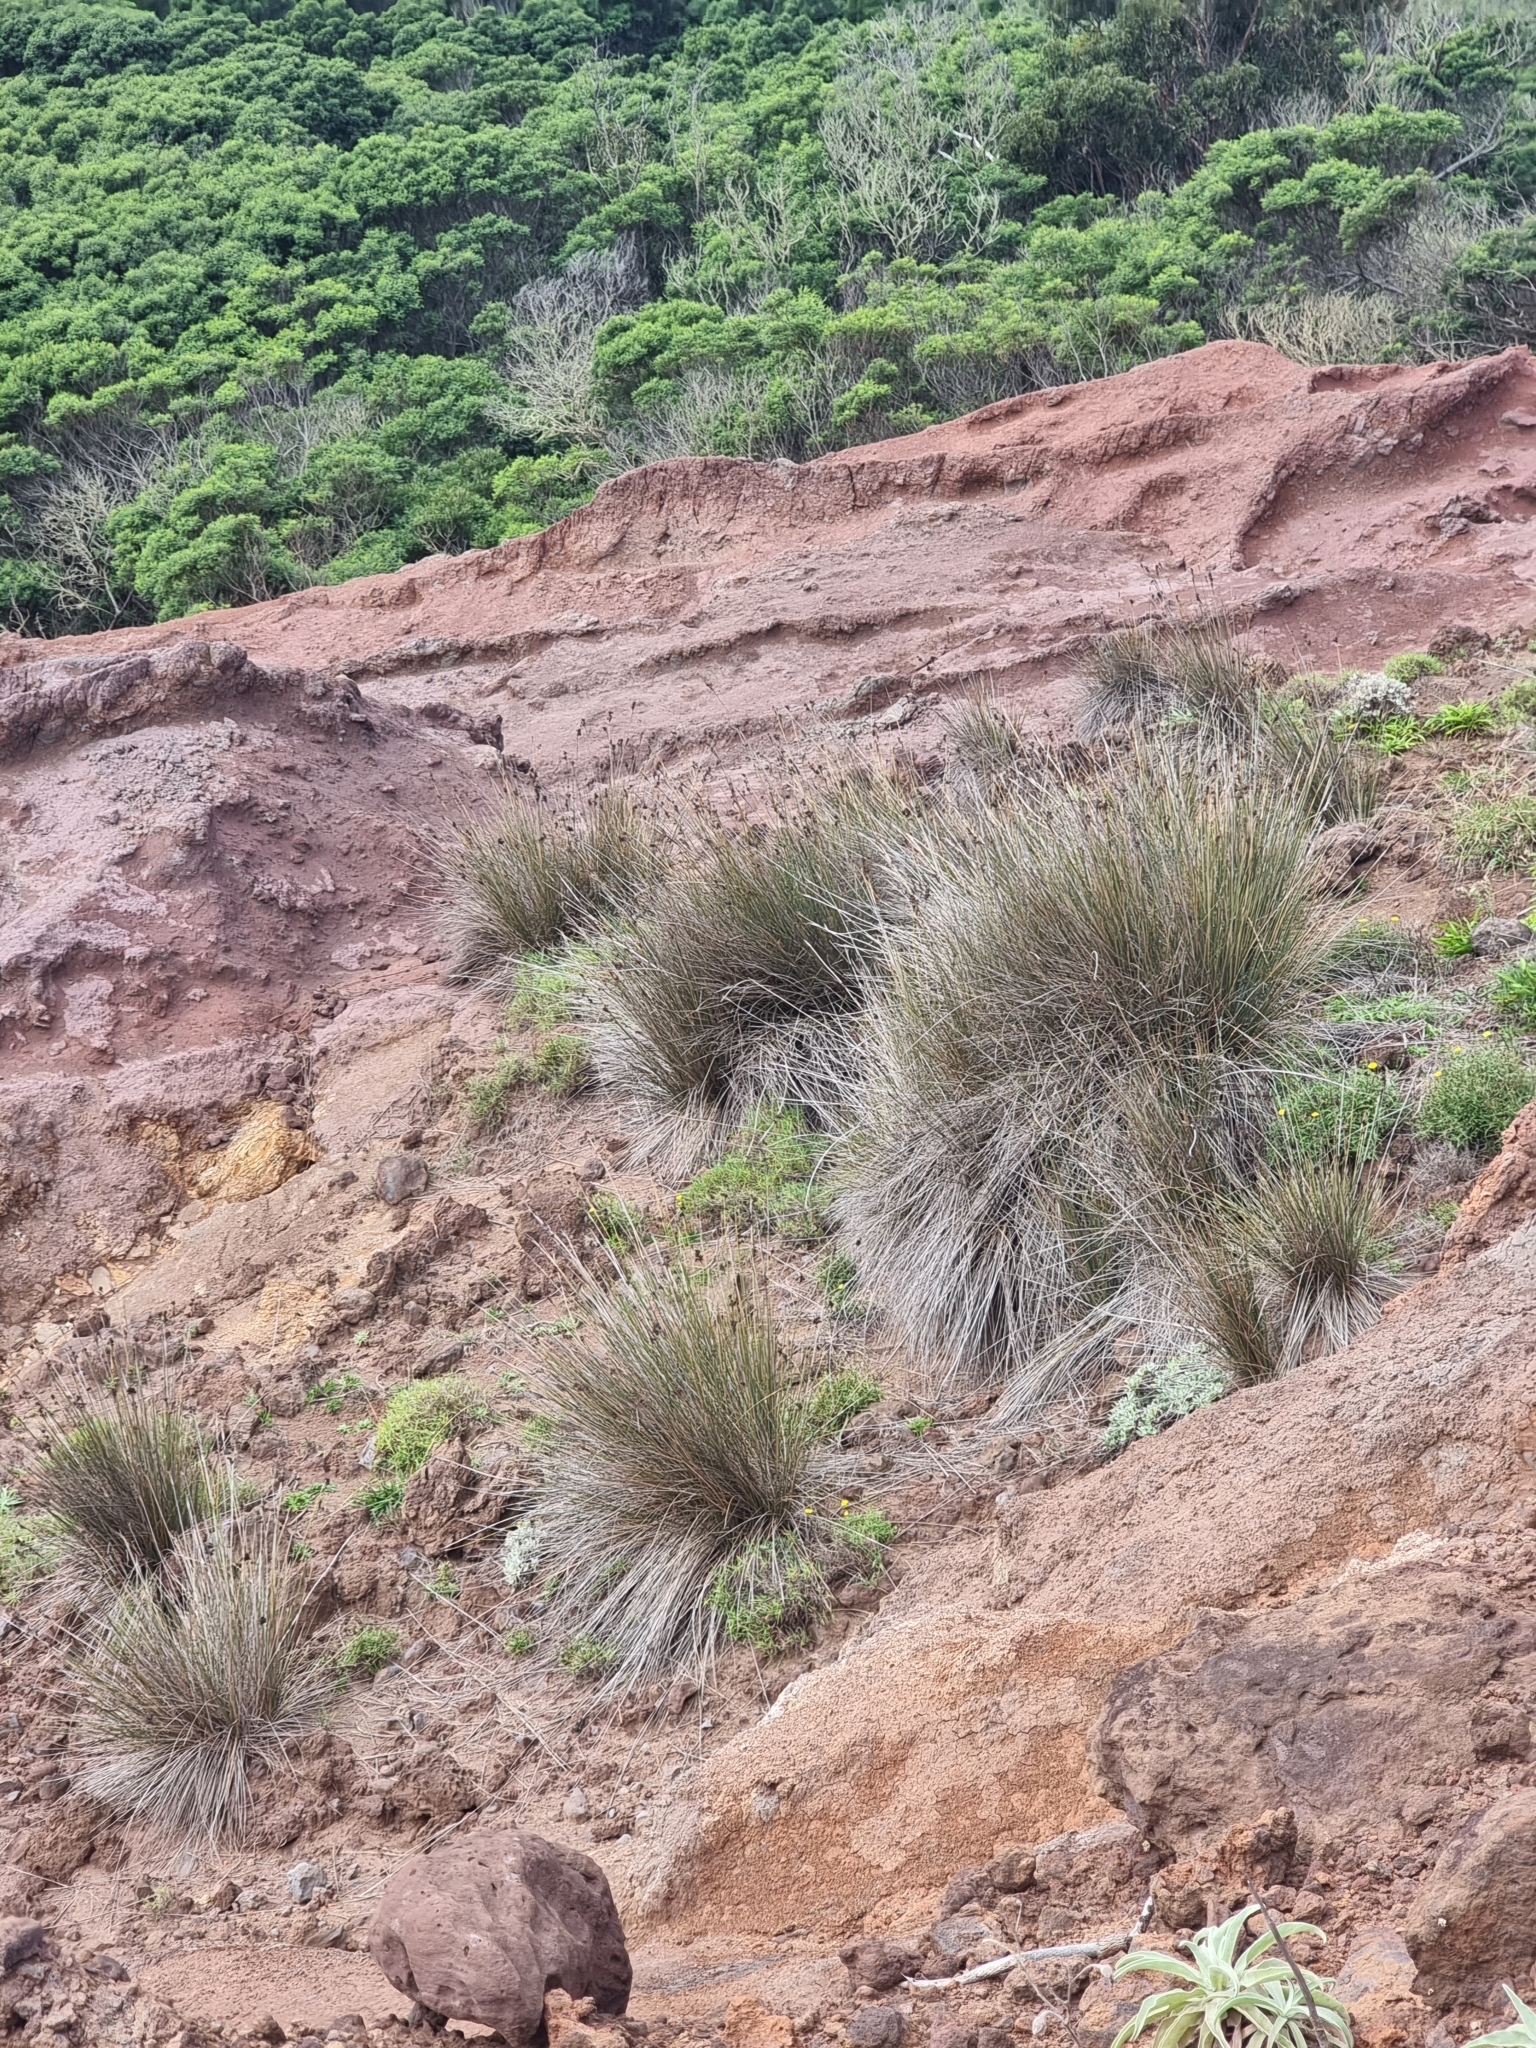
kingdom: Plantae
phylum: Tracheophyta
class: Liliopsida
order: Poales
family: Juncaceae
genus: Juncus
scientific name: Juncus acutus
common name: Sharp rush
